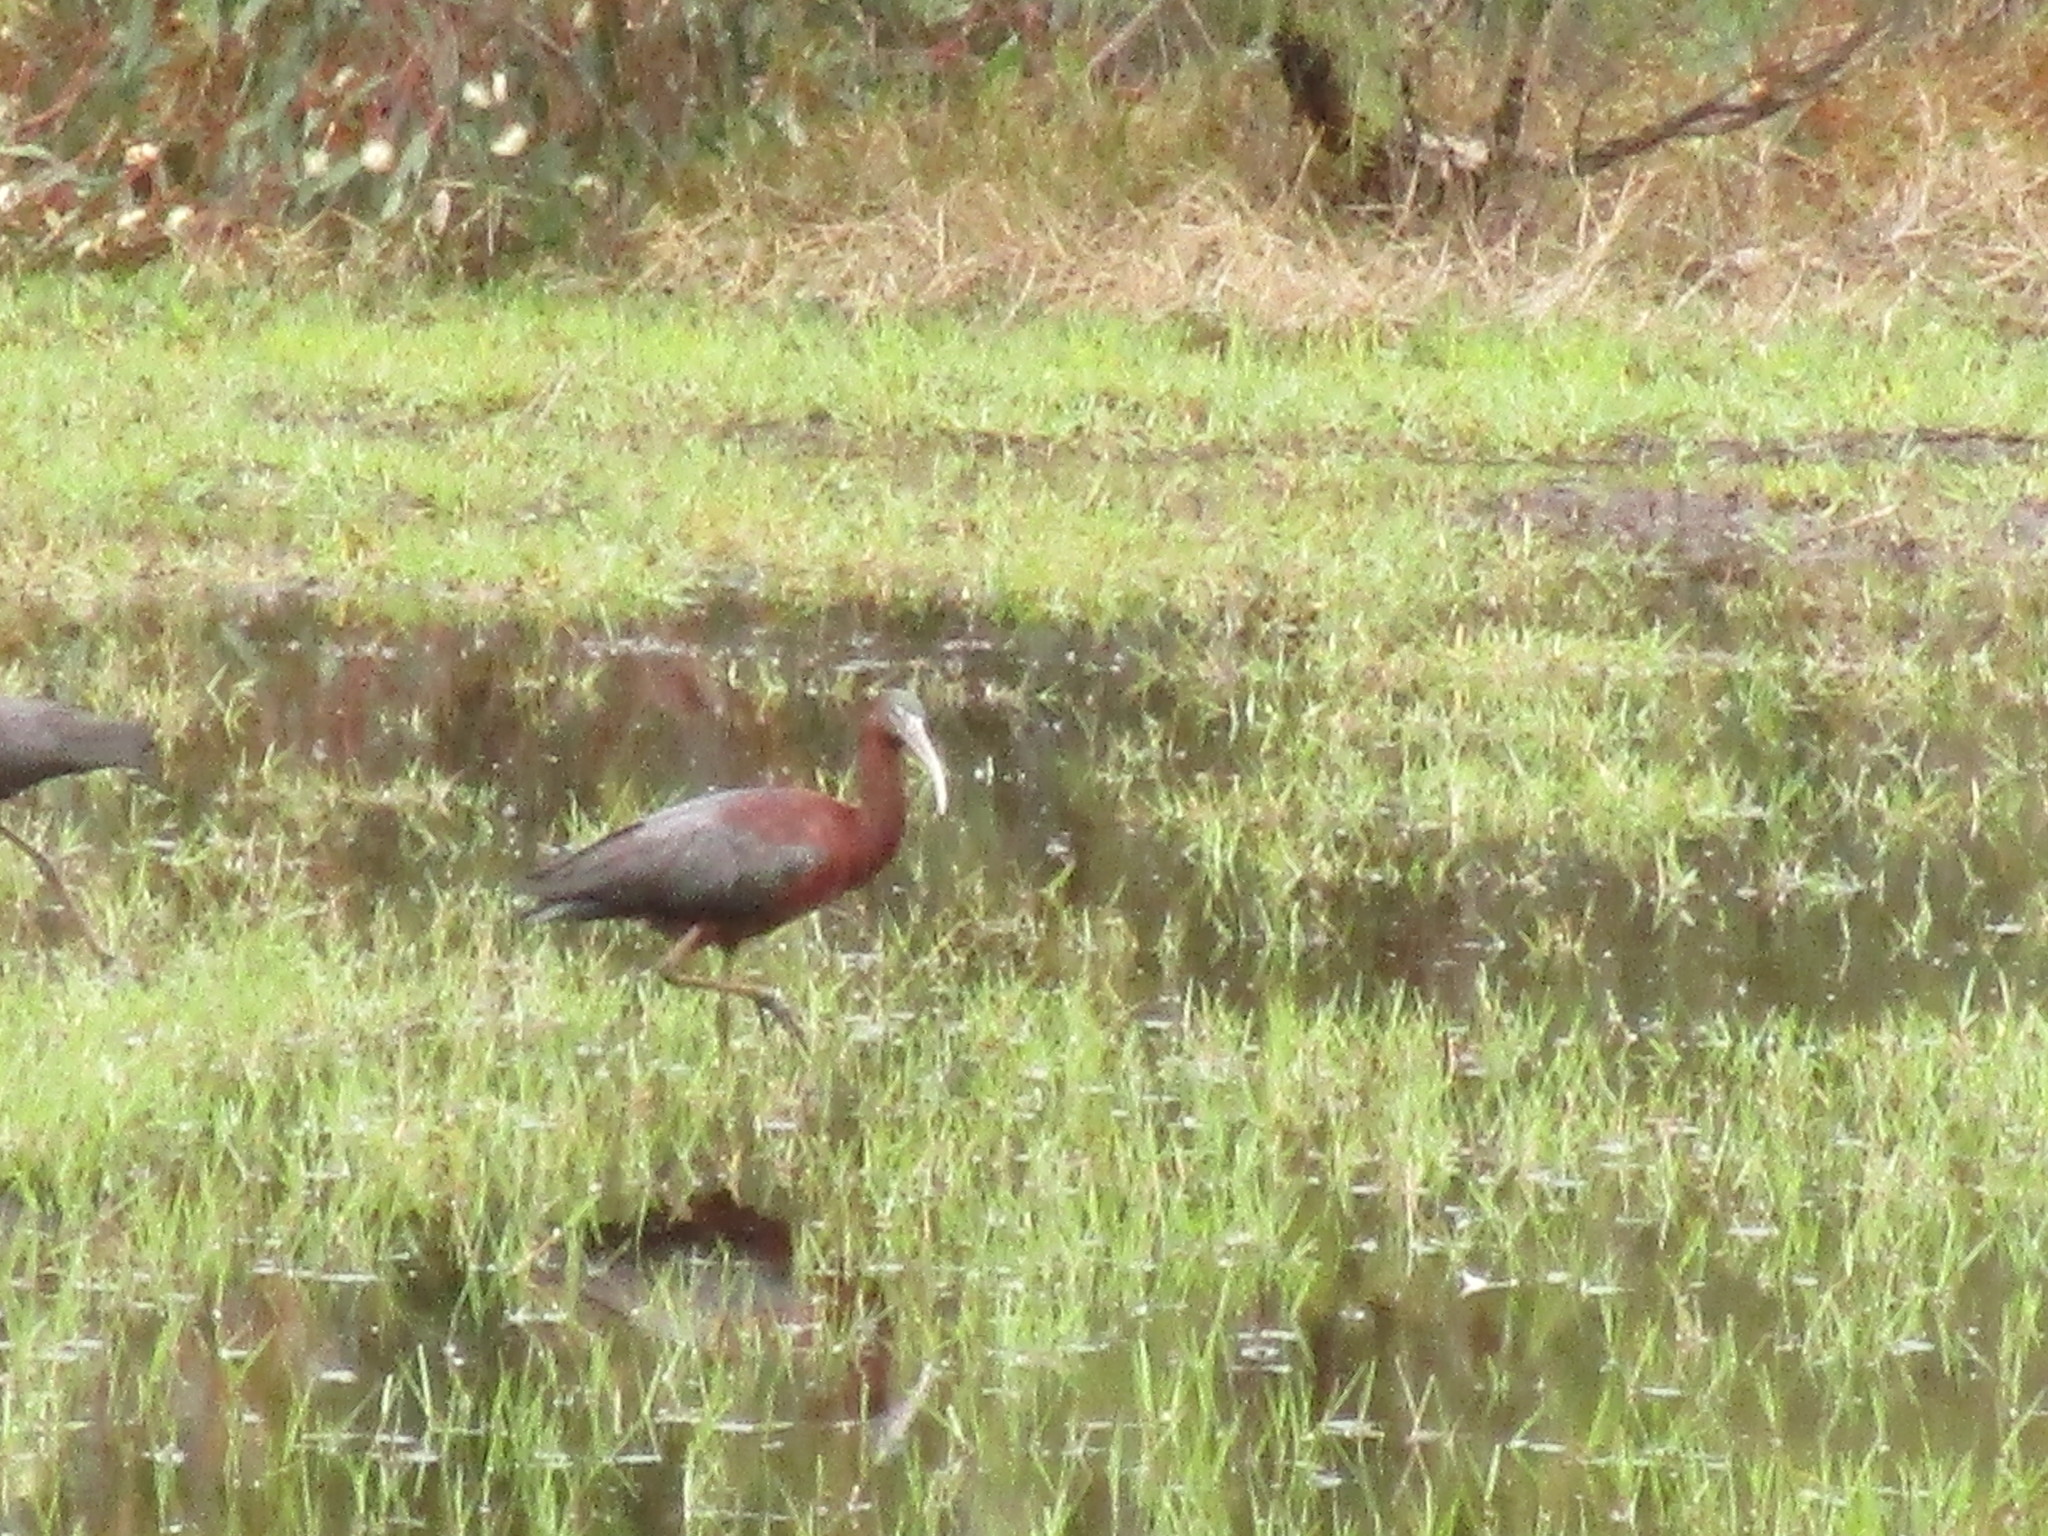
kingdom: Animalia
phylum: Chordata
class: Aves
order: Pelecaniformes
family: Threskiornithidae
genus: Plegadis
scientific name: Plegadis falcinellus
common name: Glossy ibis
